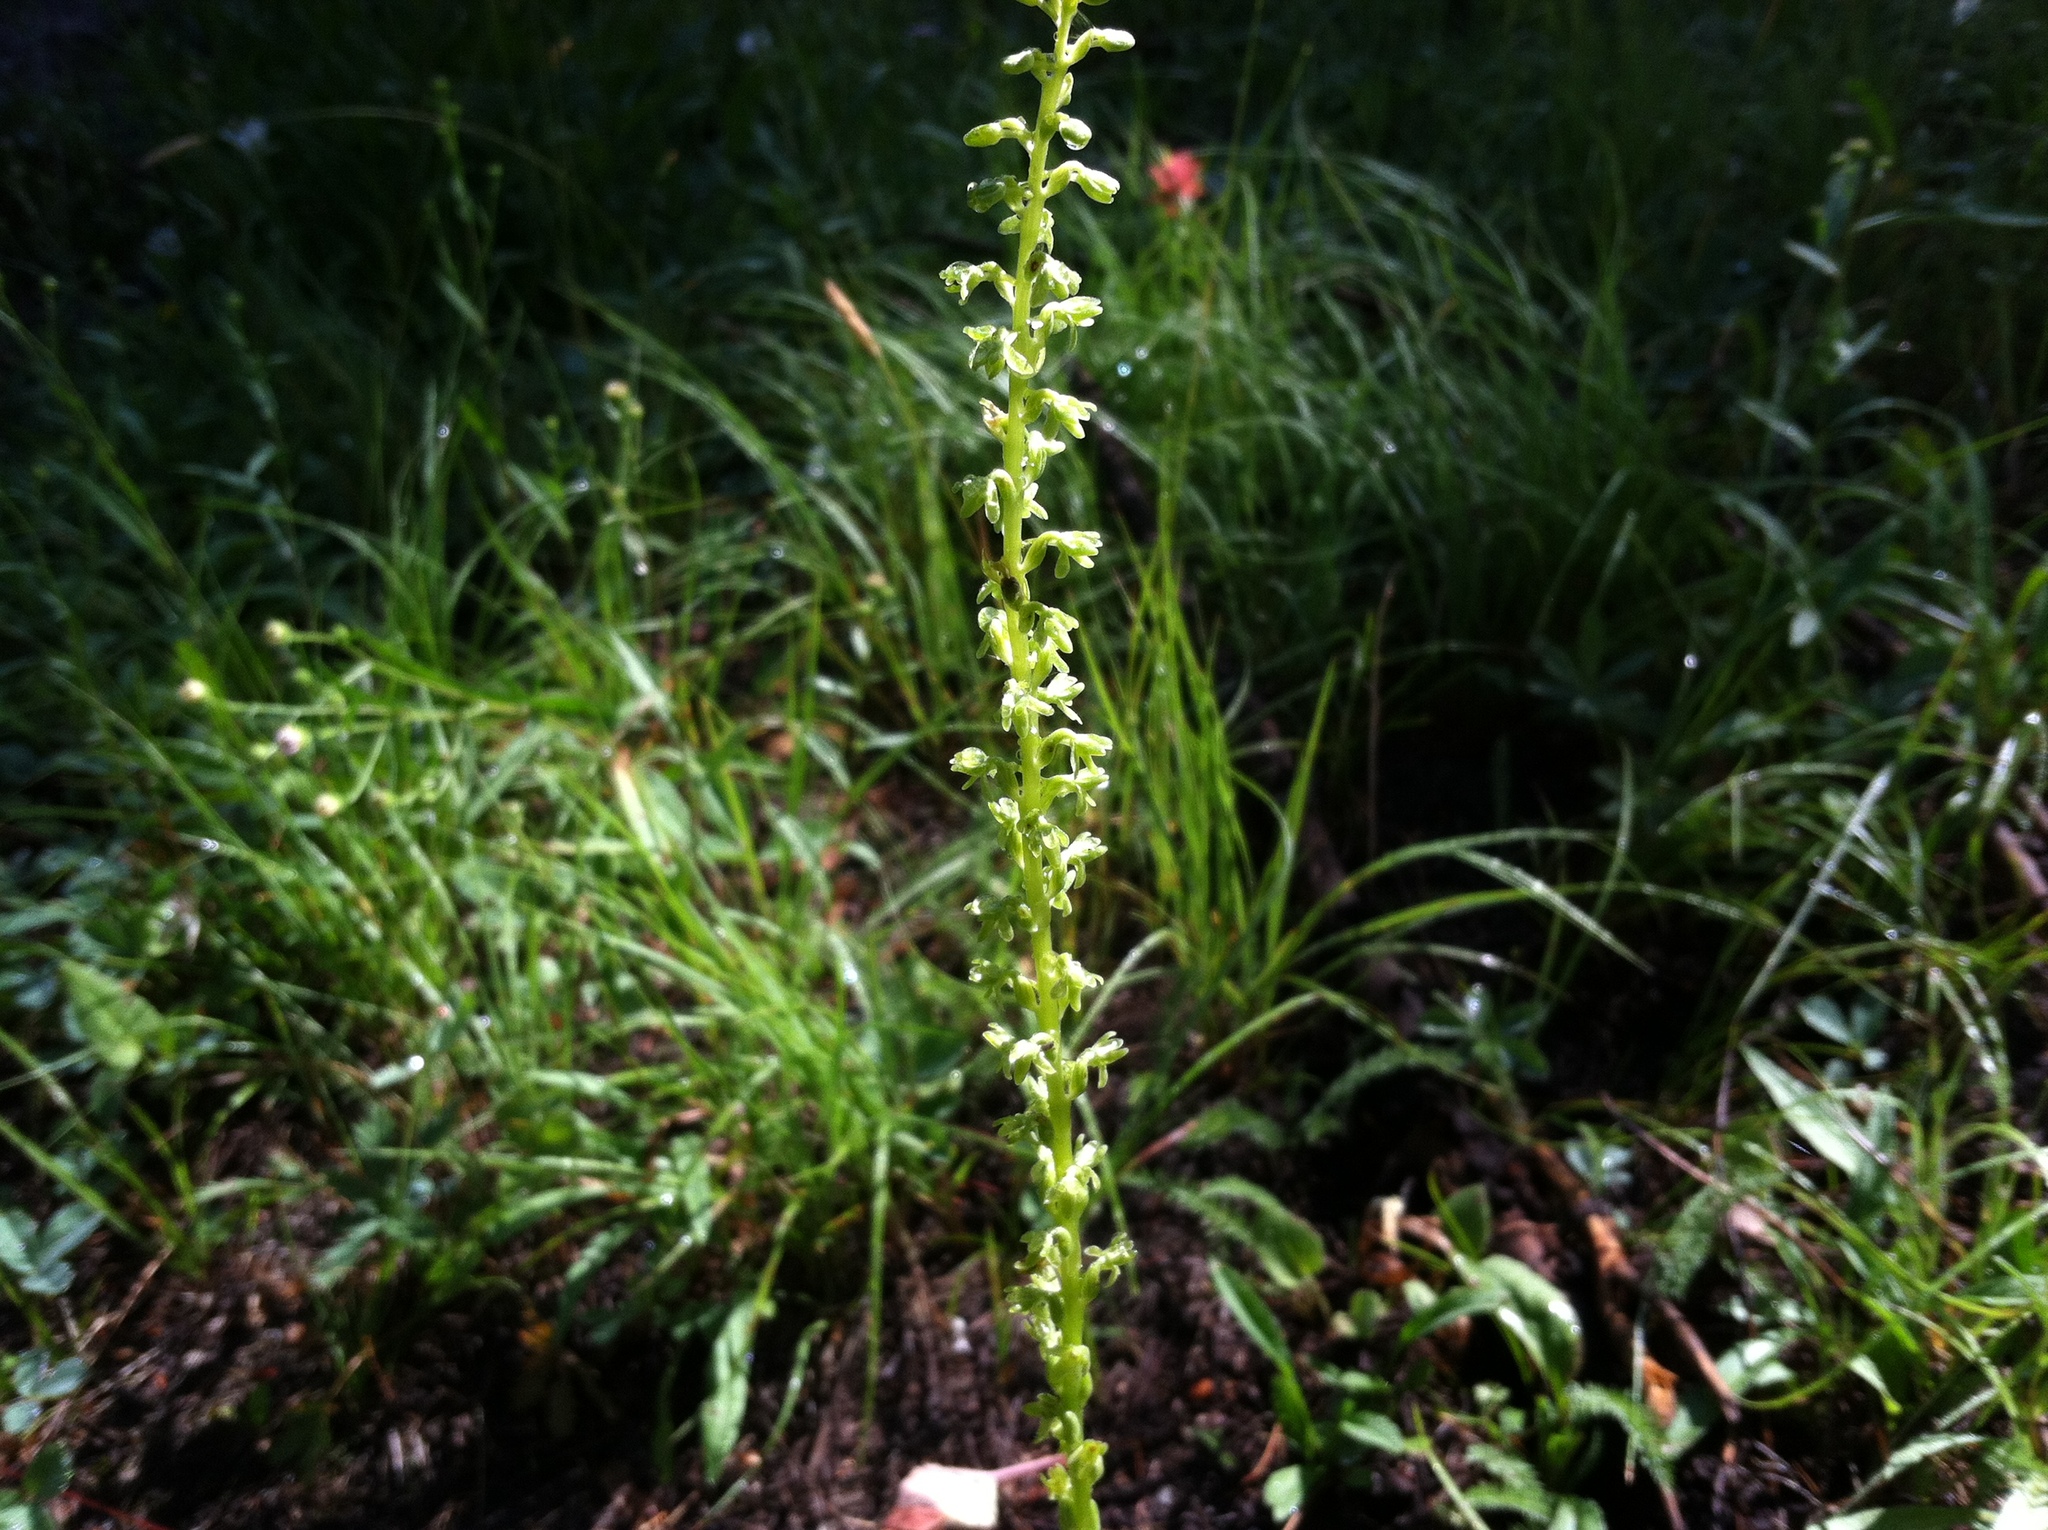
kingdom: Plantae
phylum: Tracheophyta
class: Liliopsida
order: Asparagales
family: Orchidaceae
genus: Platanthera
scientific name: Platanthera unalascensis
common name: Alaska bog orchid
